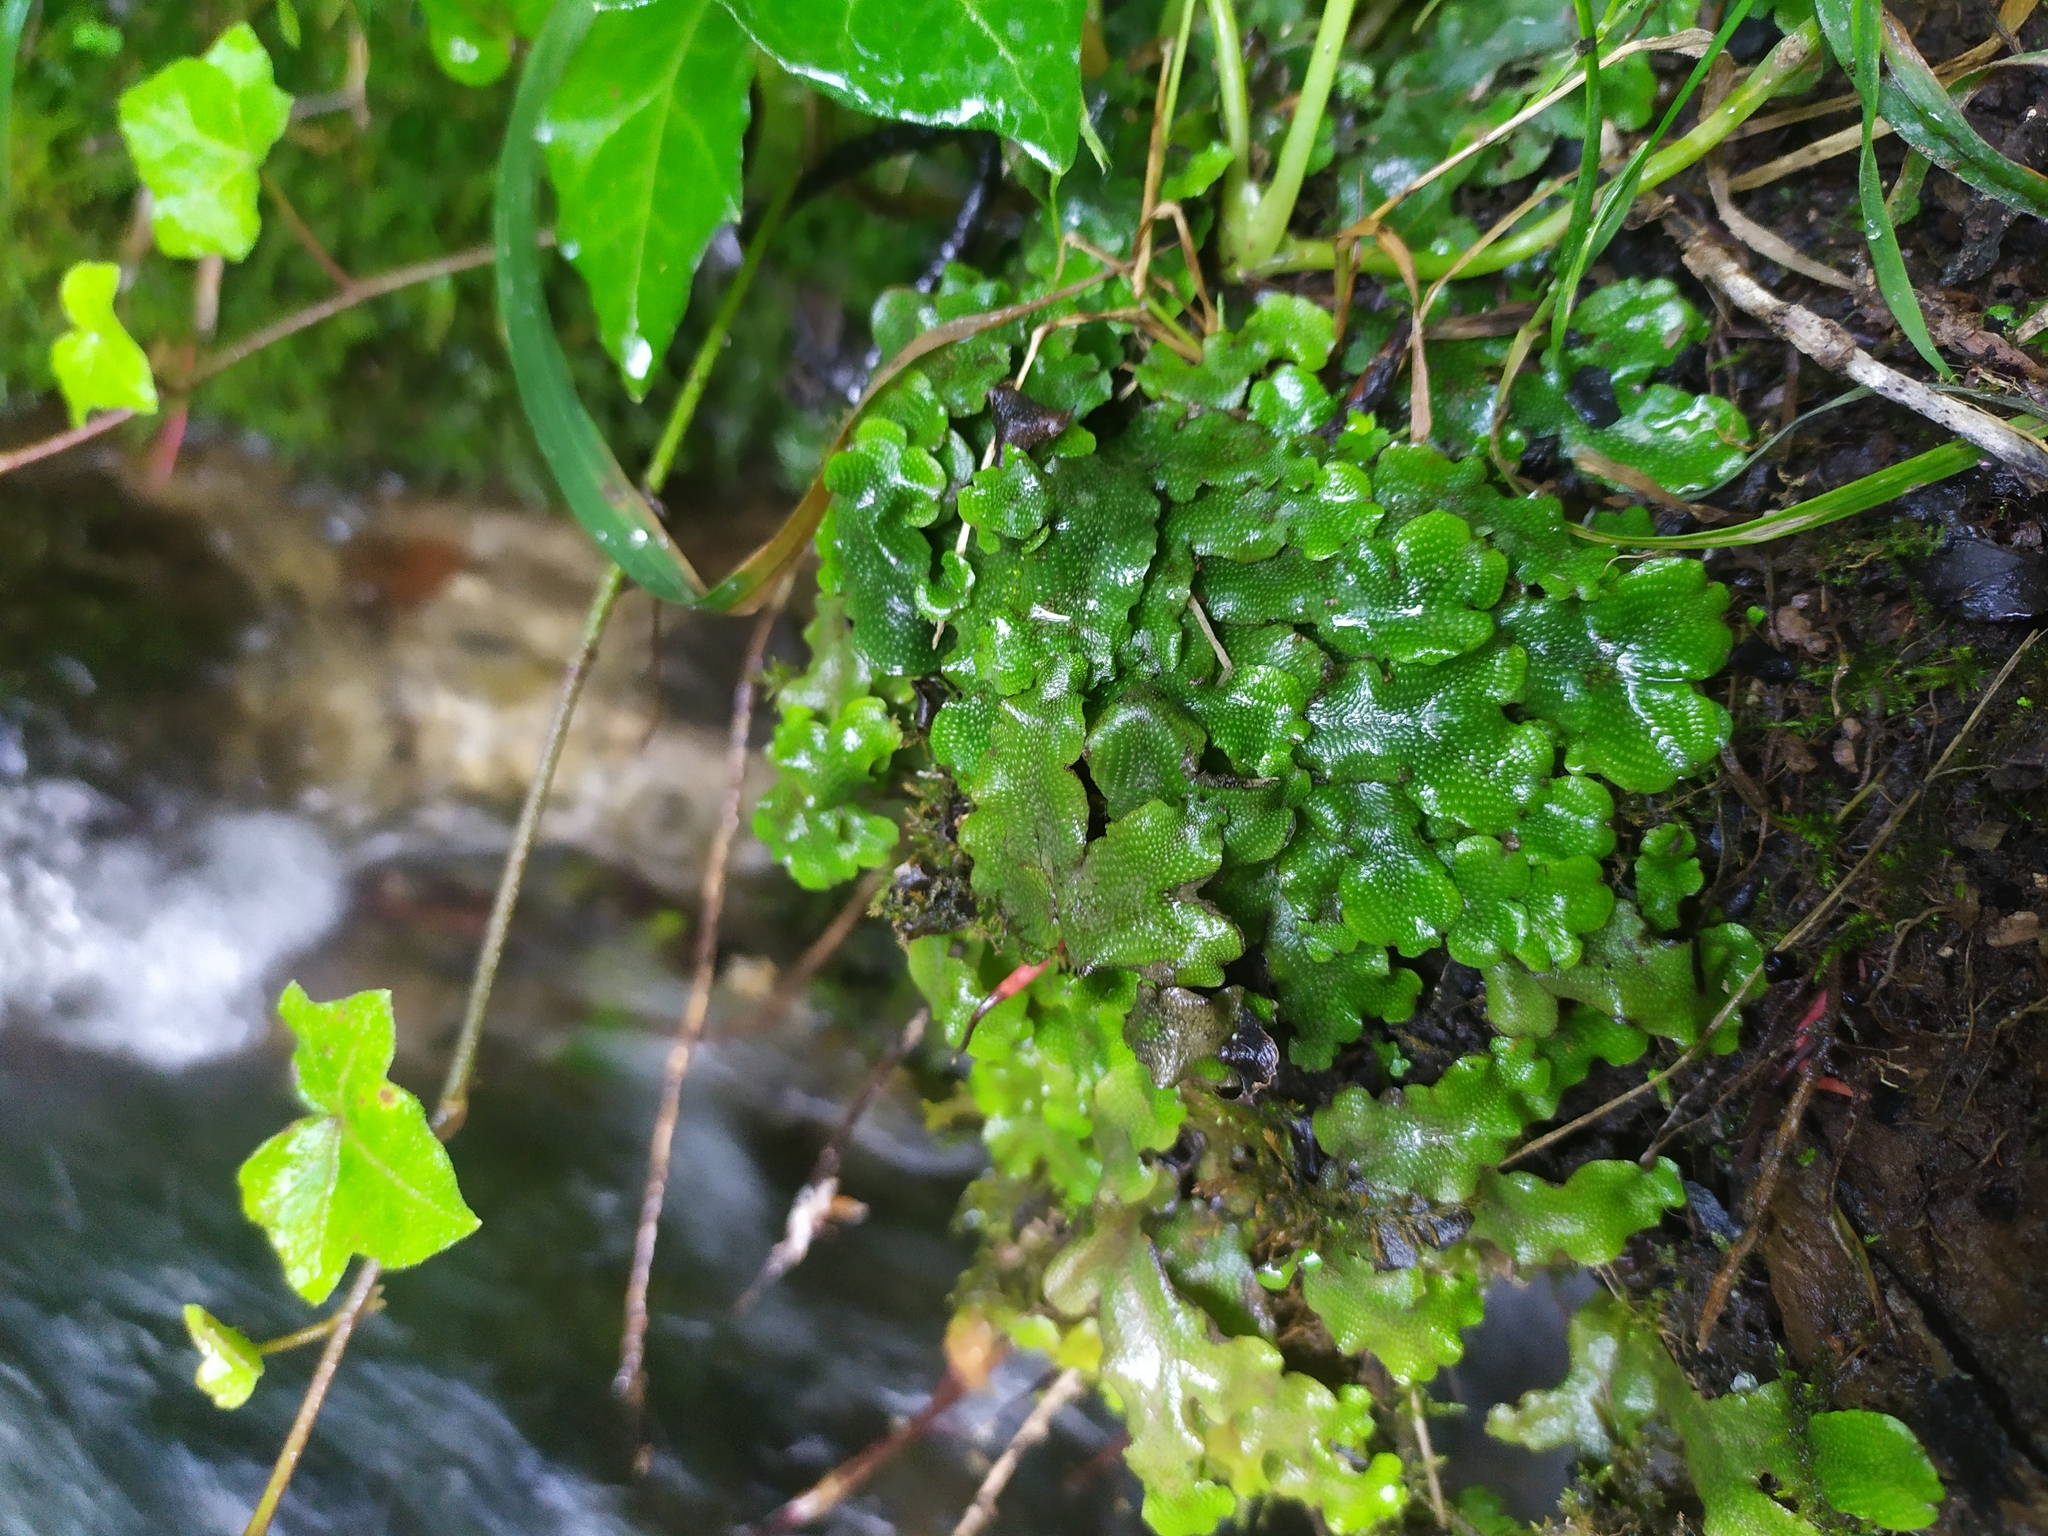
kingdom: Plantae
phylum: Marchantiophyta
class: Marchantiopsida
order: Marchantiales
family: Conocephalaceae
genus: Conocephalum
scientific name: Conocephalum conicum
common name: Great scented liverwort
